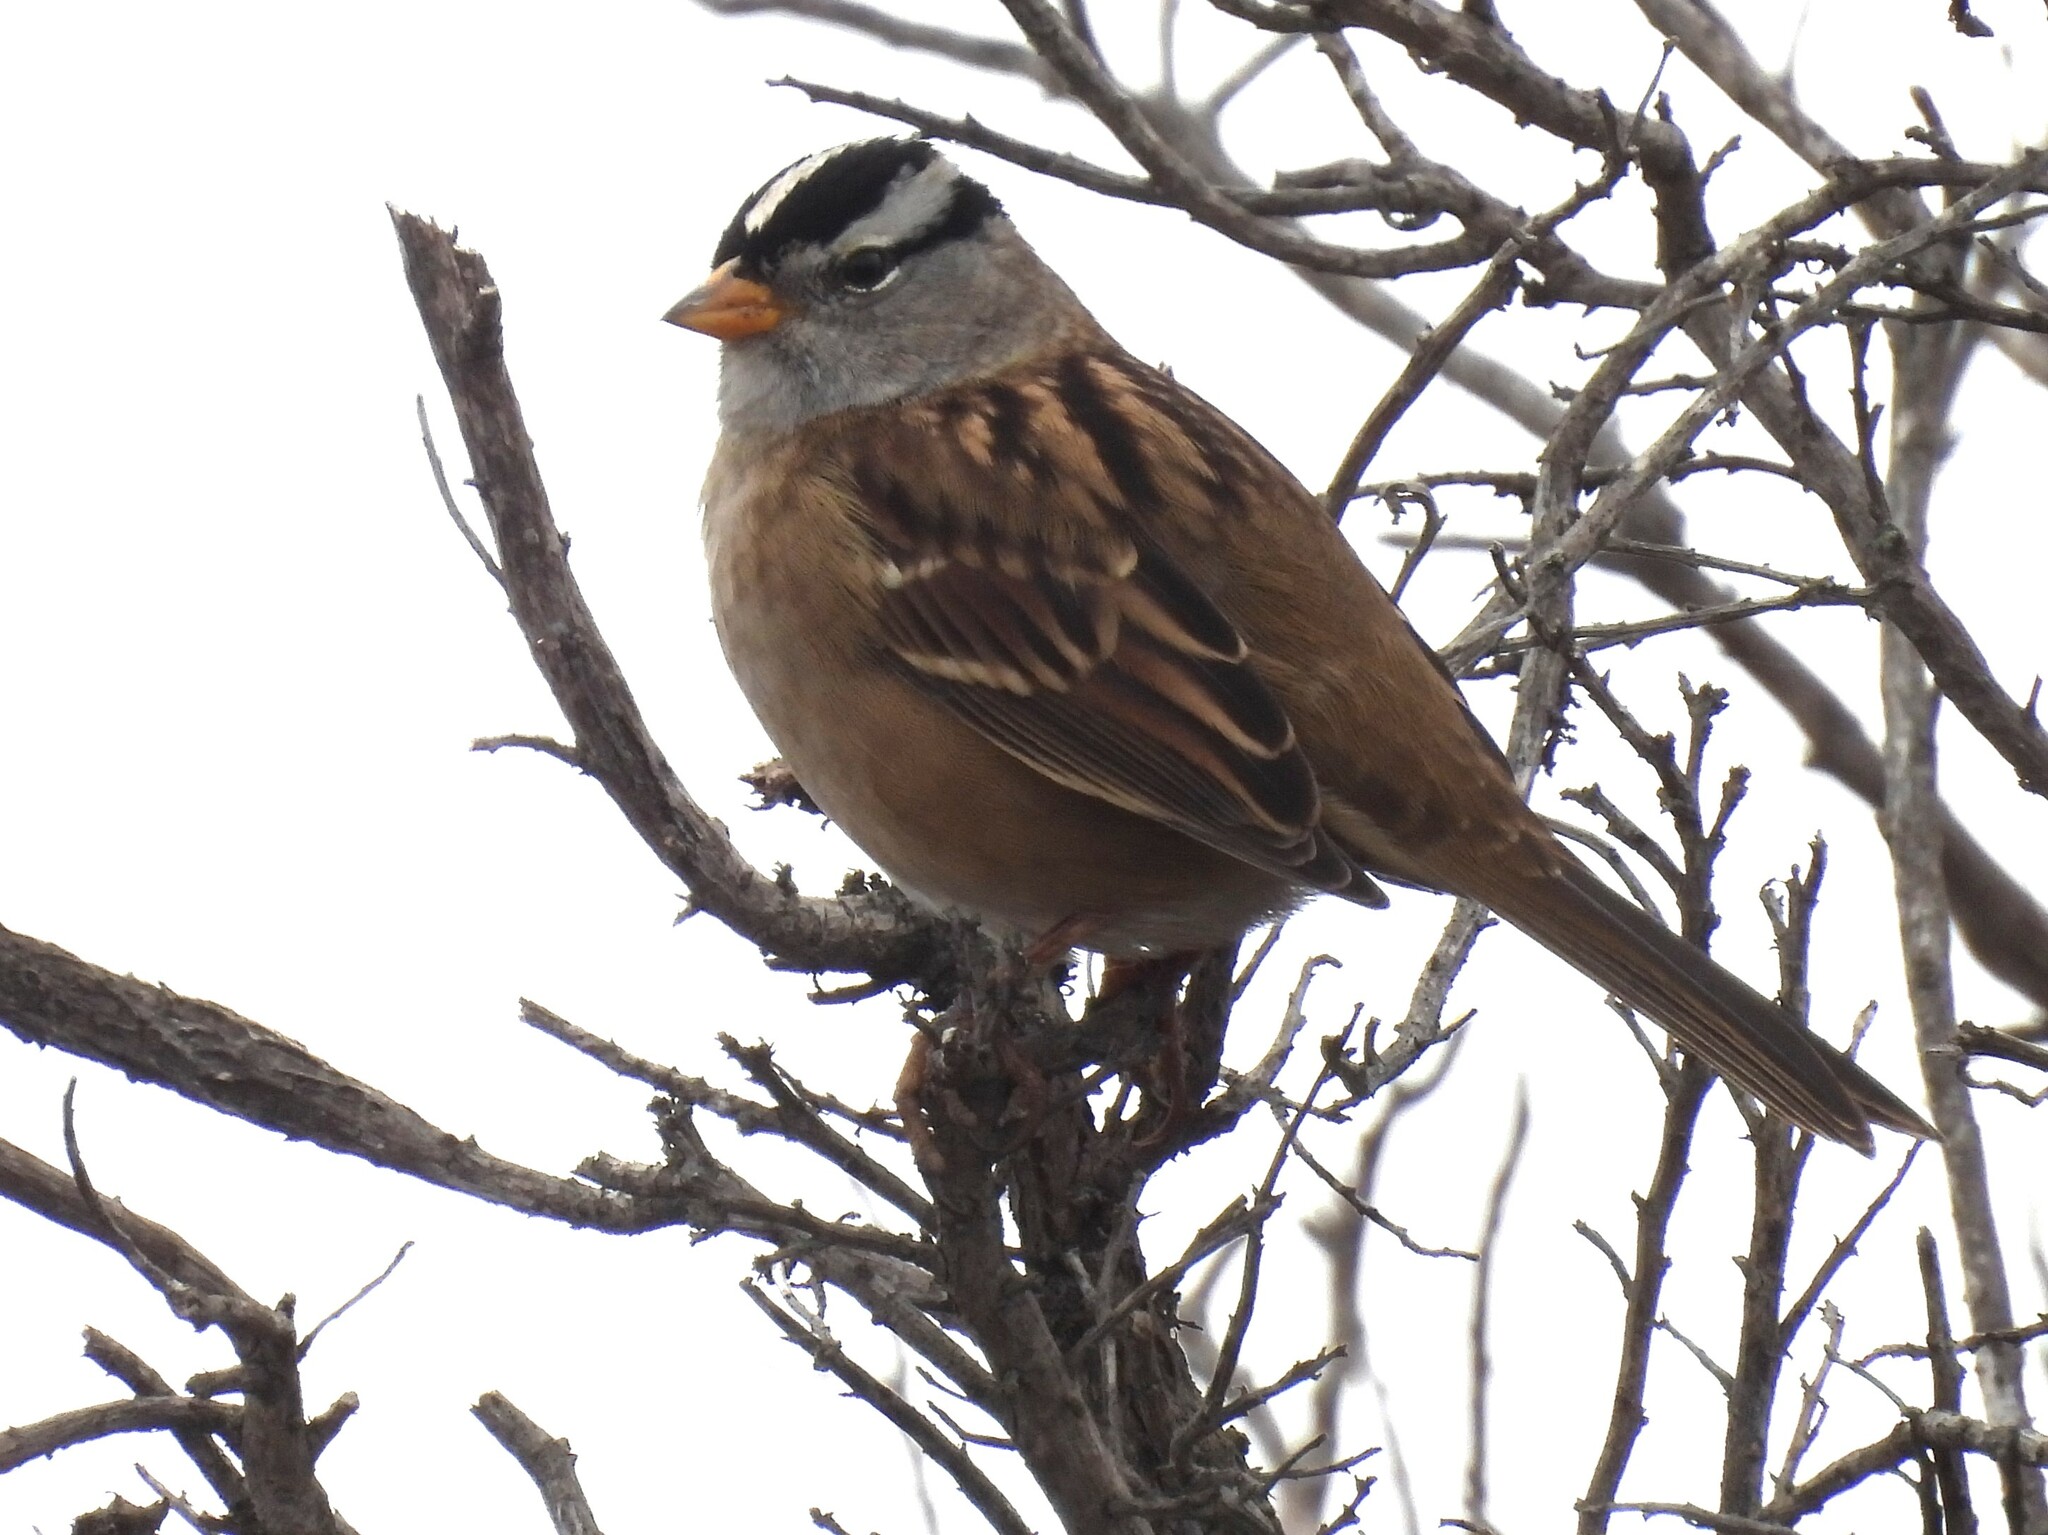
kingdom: Animalia
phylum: Chordata
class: Aves
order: Passeriformes
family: Passerellidae
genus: Zonotrichia
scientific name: Zonotrichia leucophrys
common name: White-crowned sparrow
